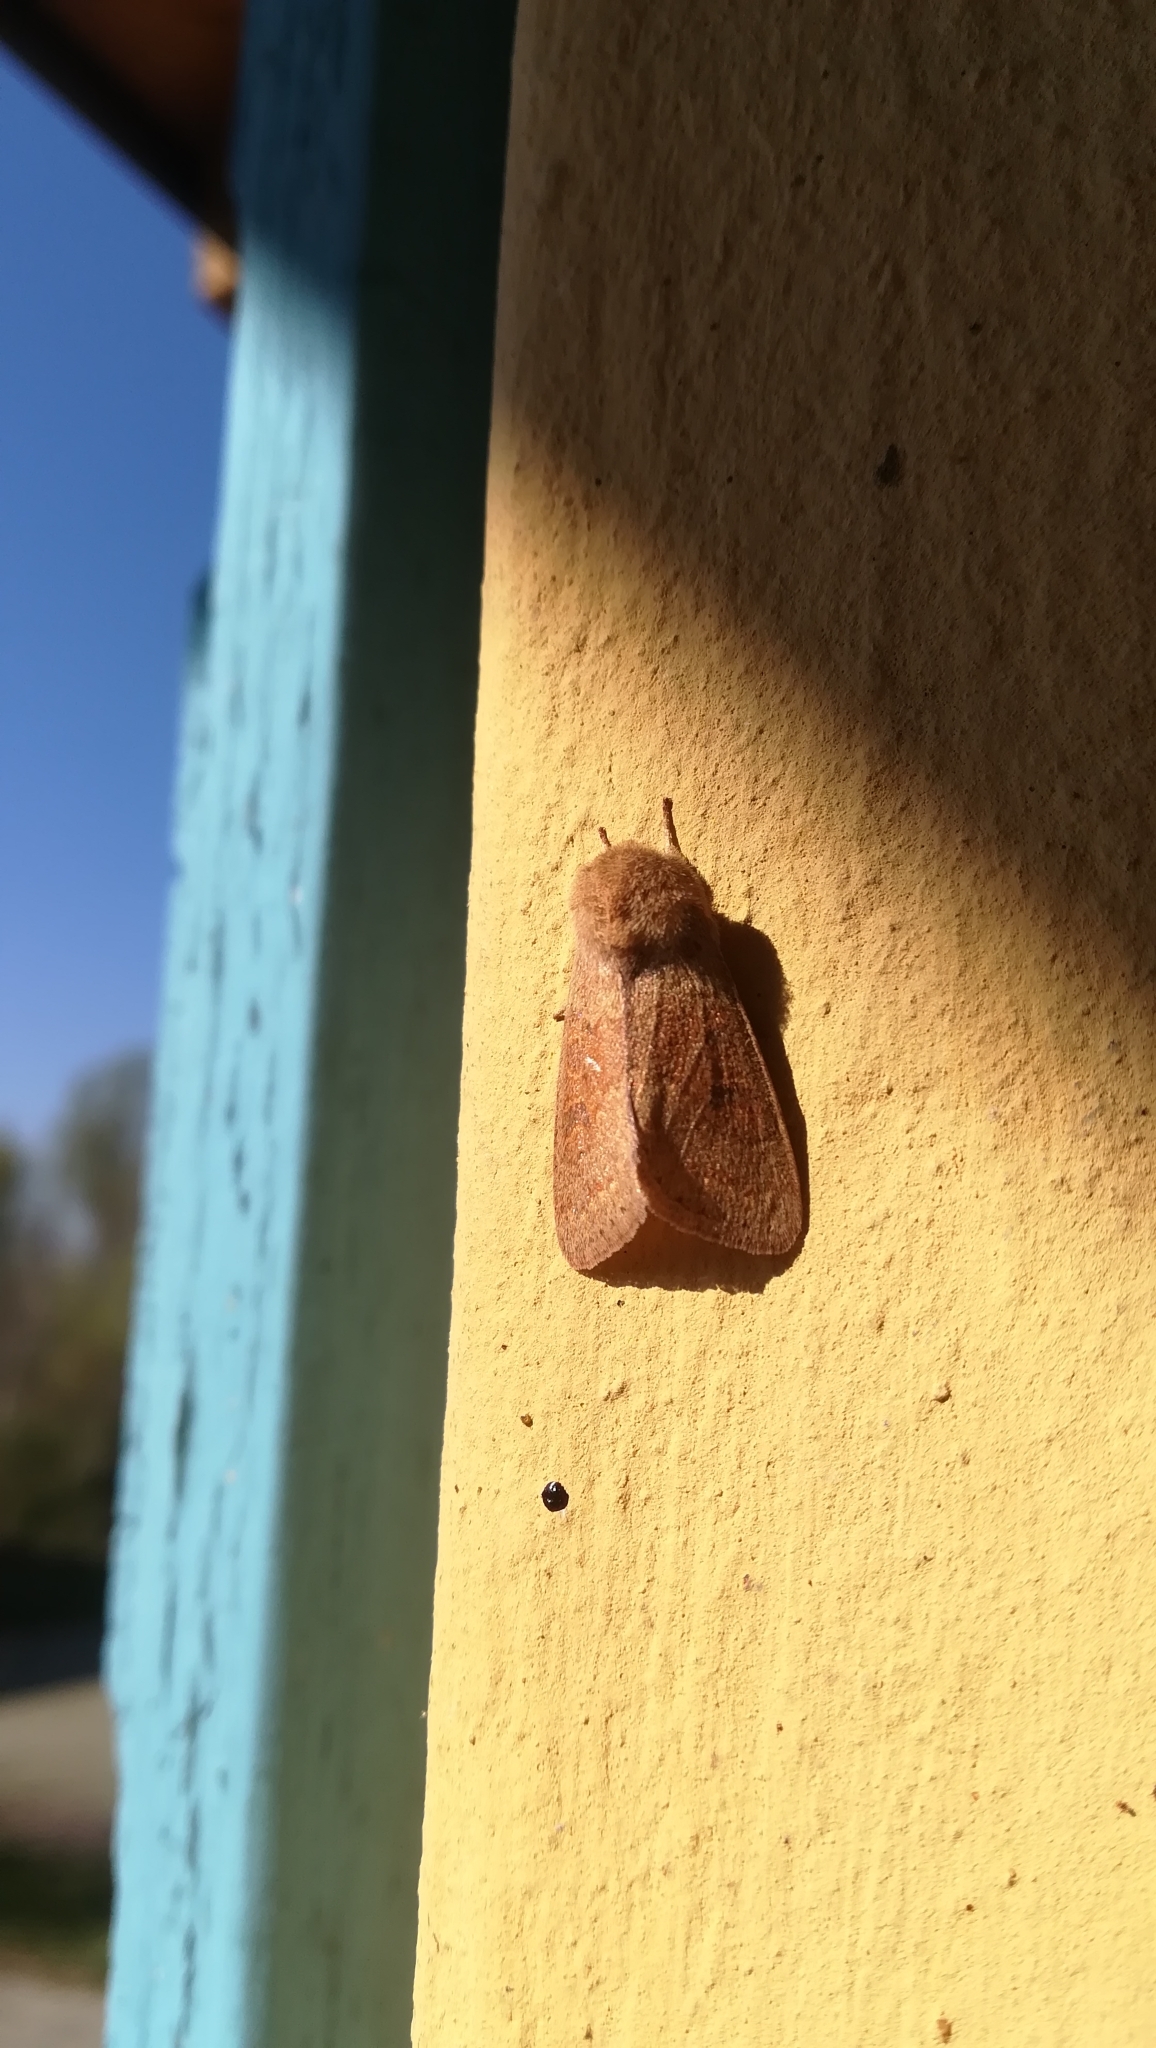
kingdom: Animalia
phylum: Arthropoda
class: Insecta
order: Lepidoptera
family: Noctuidae
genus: Orthosia
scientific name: Orthosia miniosa
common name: Blossom underwing
